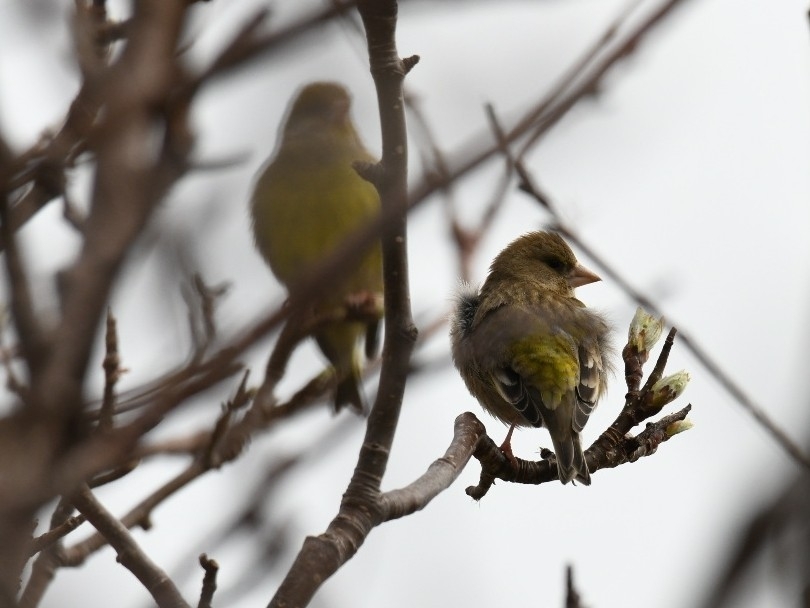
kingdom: Plantae
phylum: Tracheophyta
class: Liliopsida
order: Poales
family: Poaceae
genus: Chloris
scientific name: Chloris chloris
